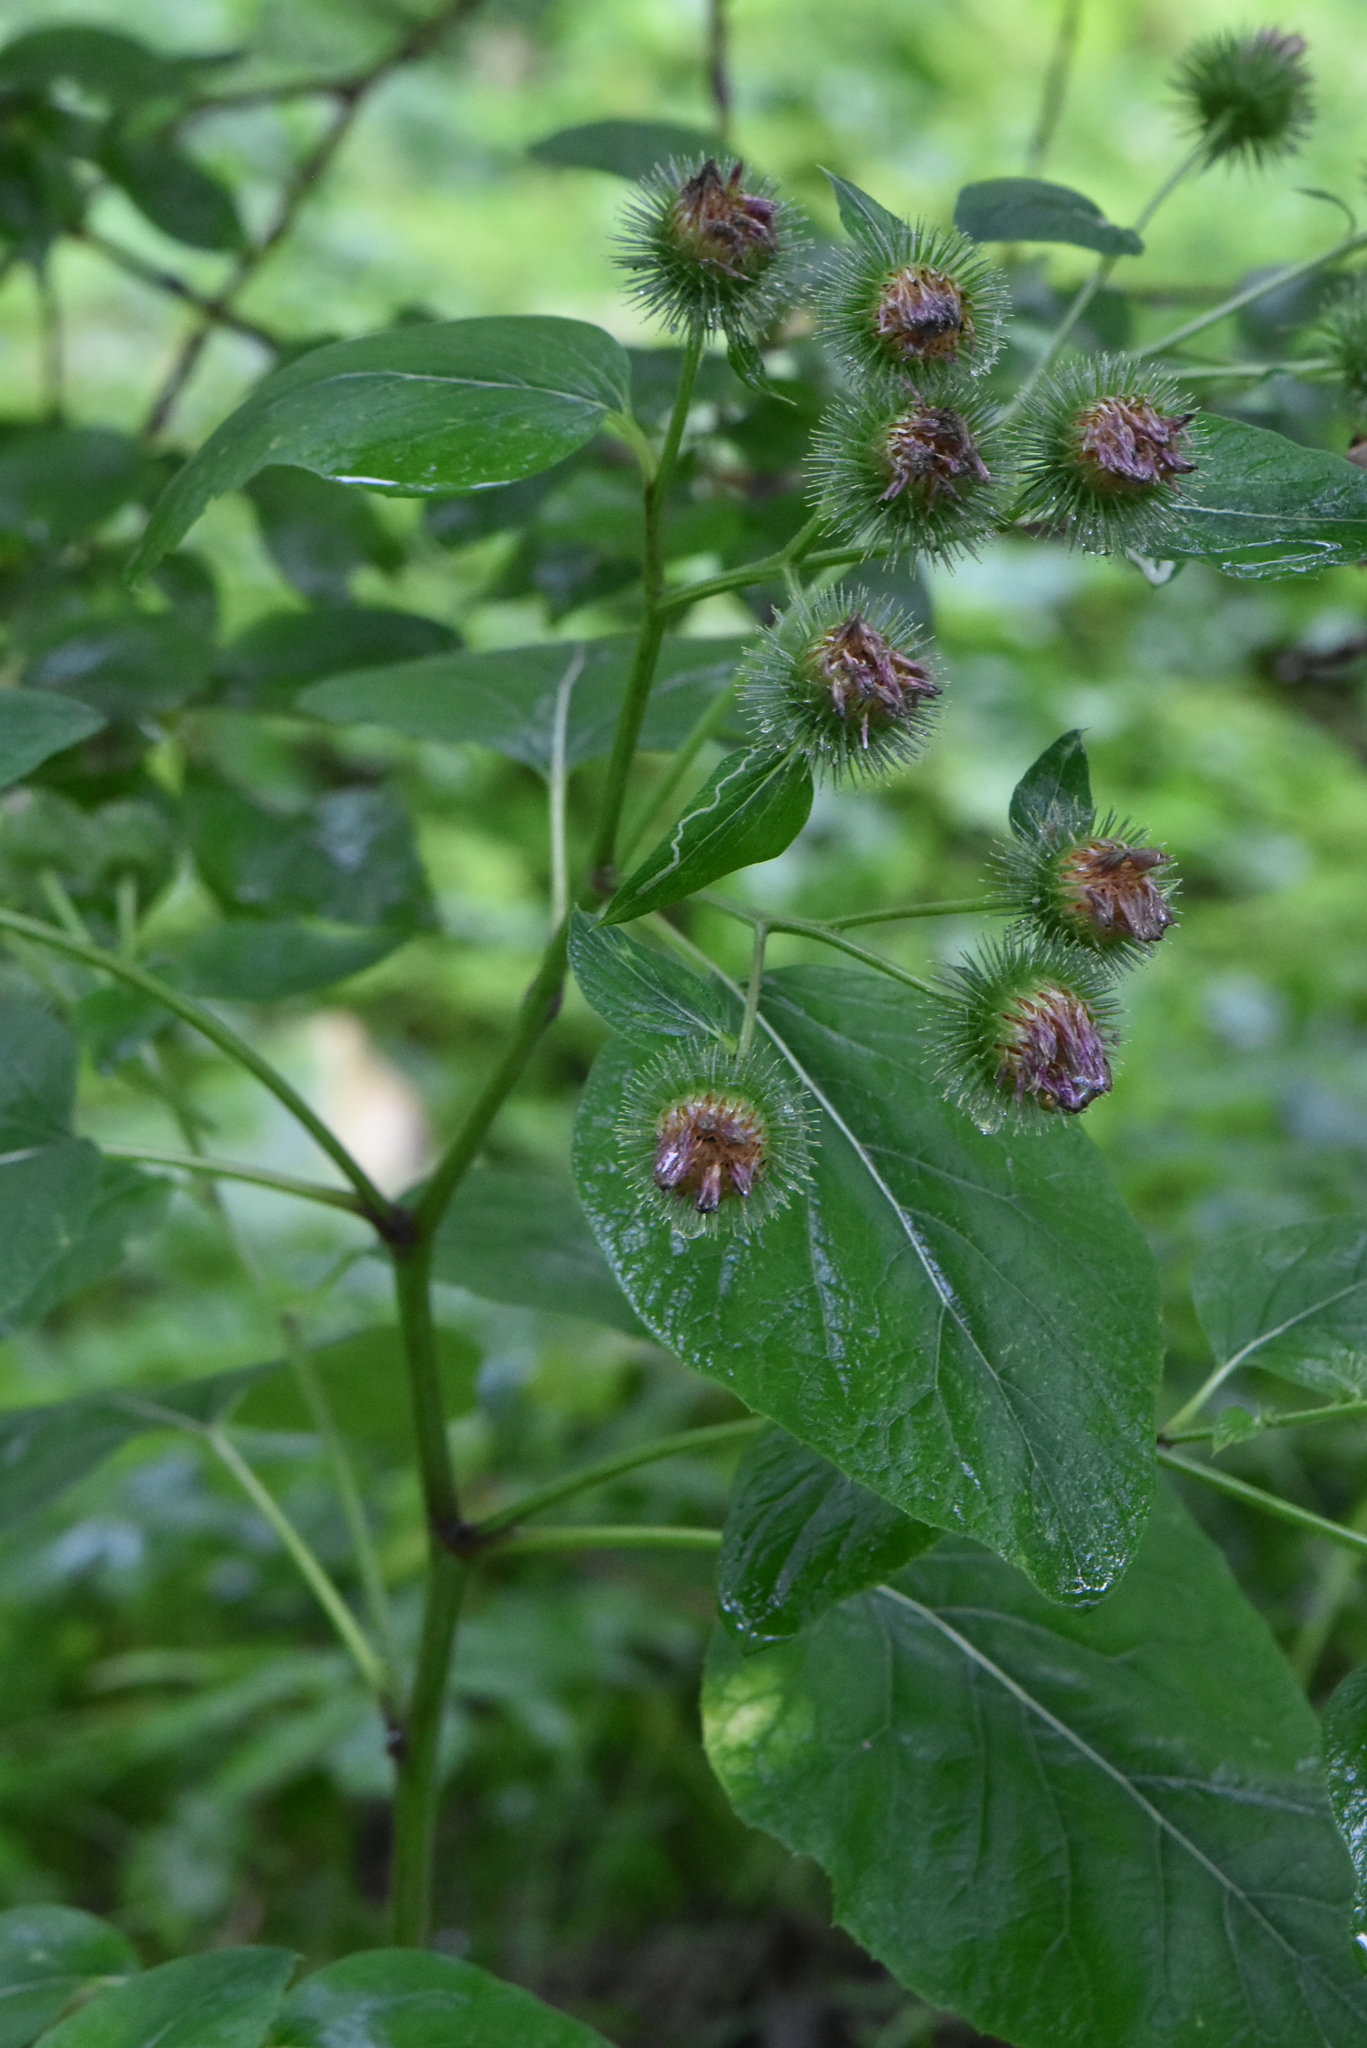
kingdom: Plantae
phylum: Tracheophyta
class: Magnoliopsida
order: Asterales
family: Asteraceae
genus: Arctium
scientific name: Arctium lappa
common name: Greater burdock
